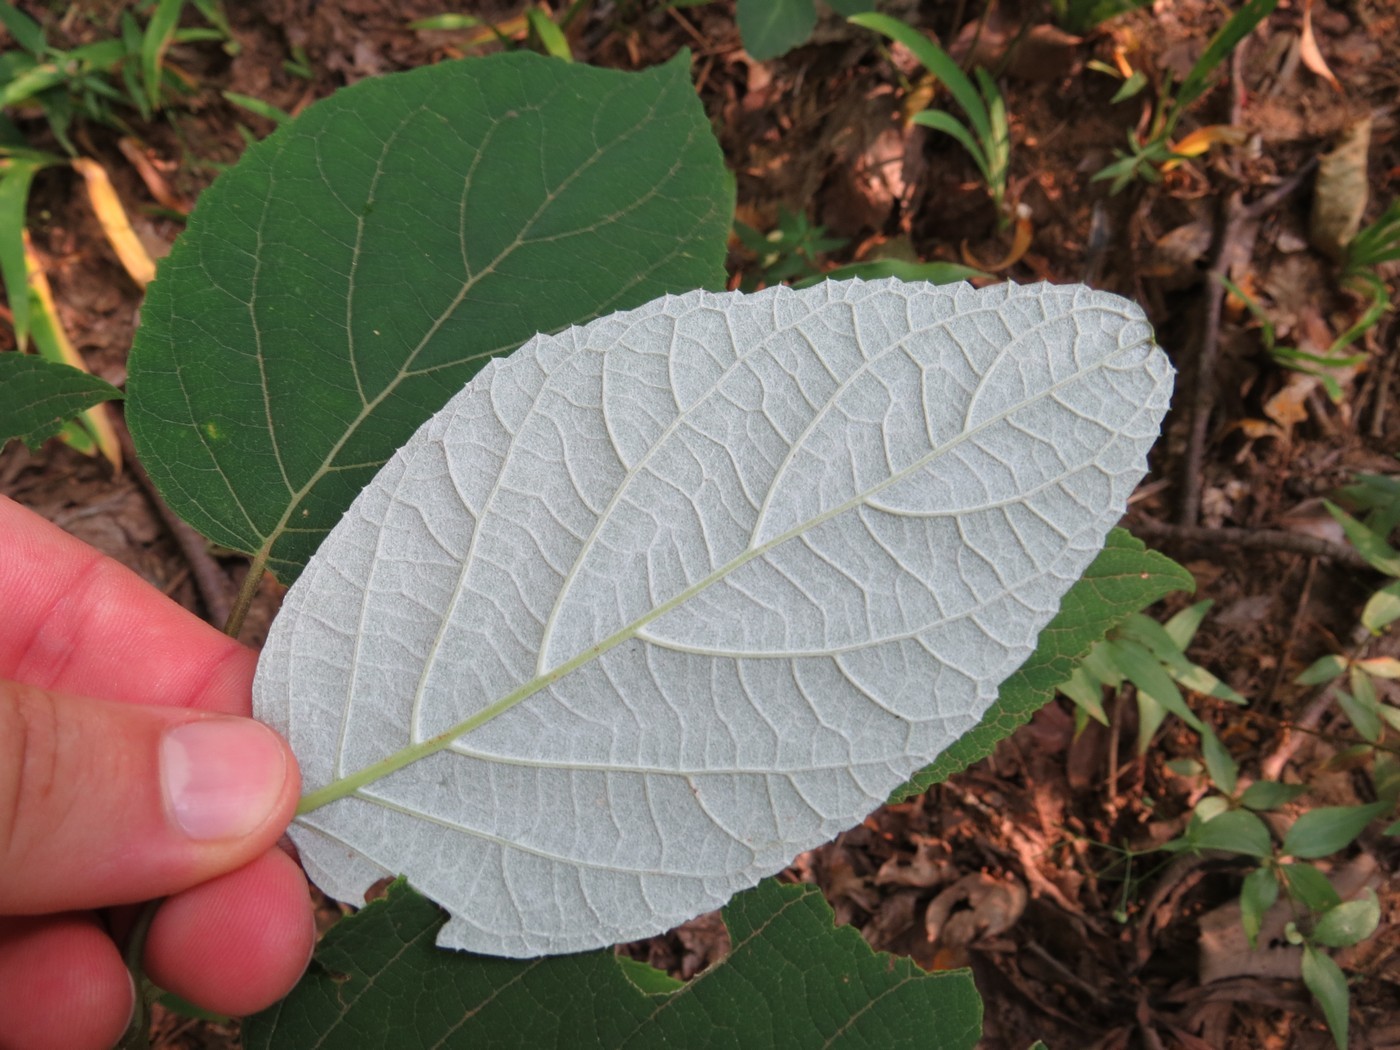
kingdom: Plantae
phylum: Tracheophyta
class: Magnoliopsida
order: Cornales
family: Hydrangeaceae
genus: Hydrangea
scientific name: Hydrangea radiata
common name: Silverleaf hydrangea
